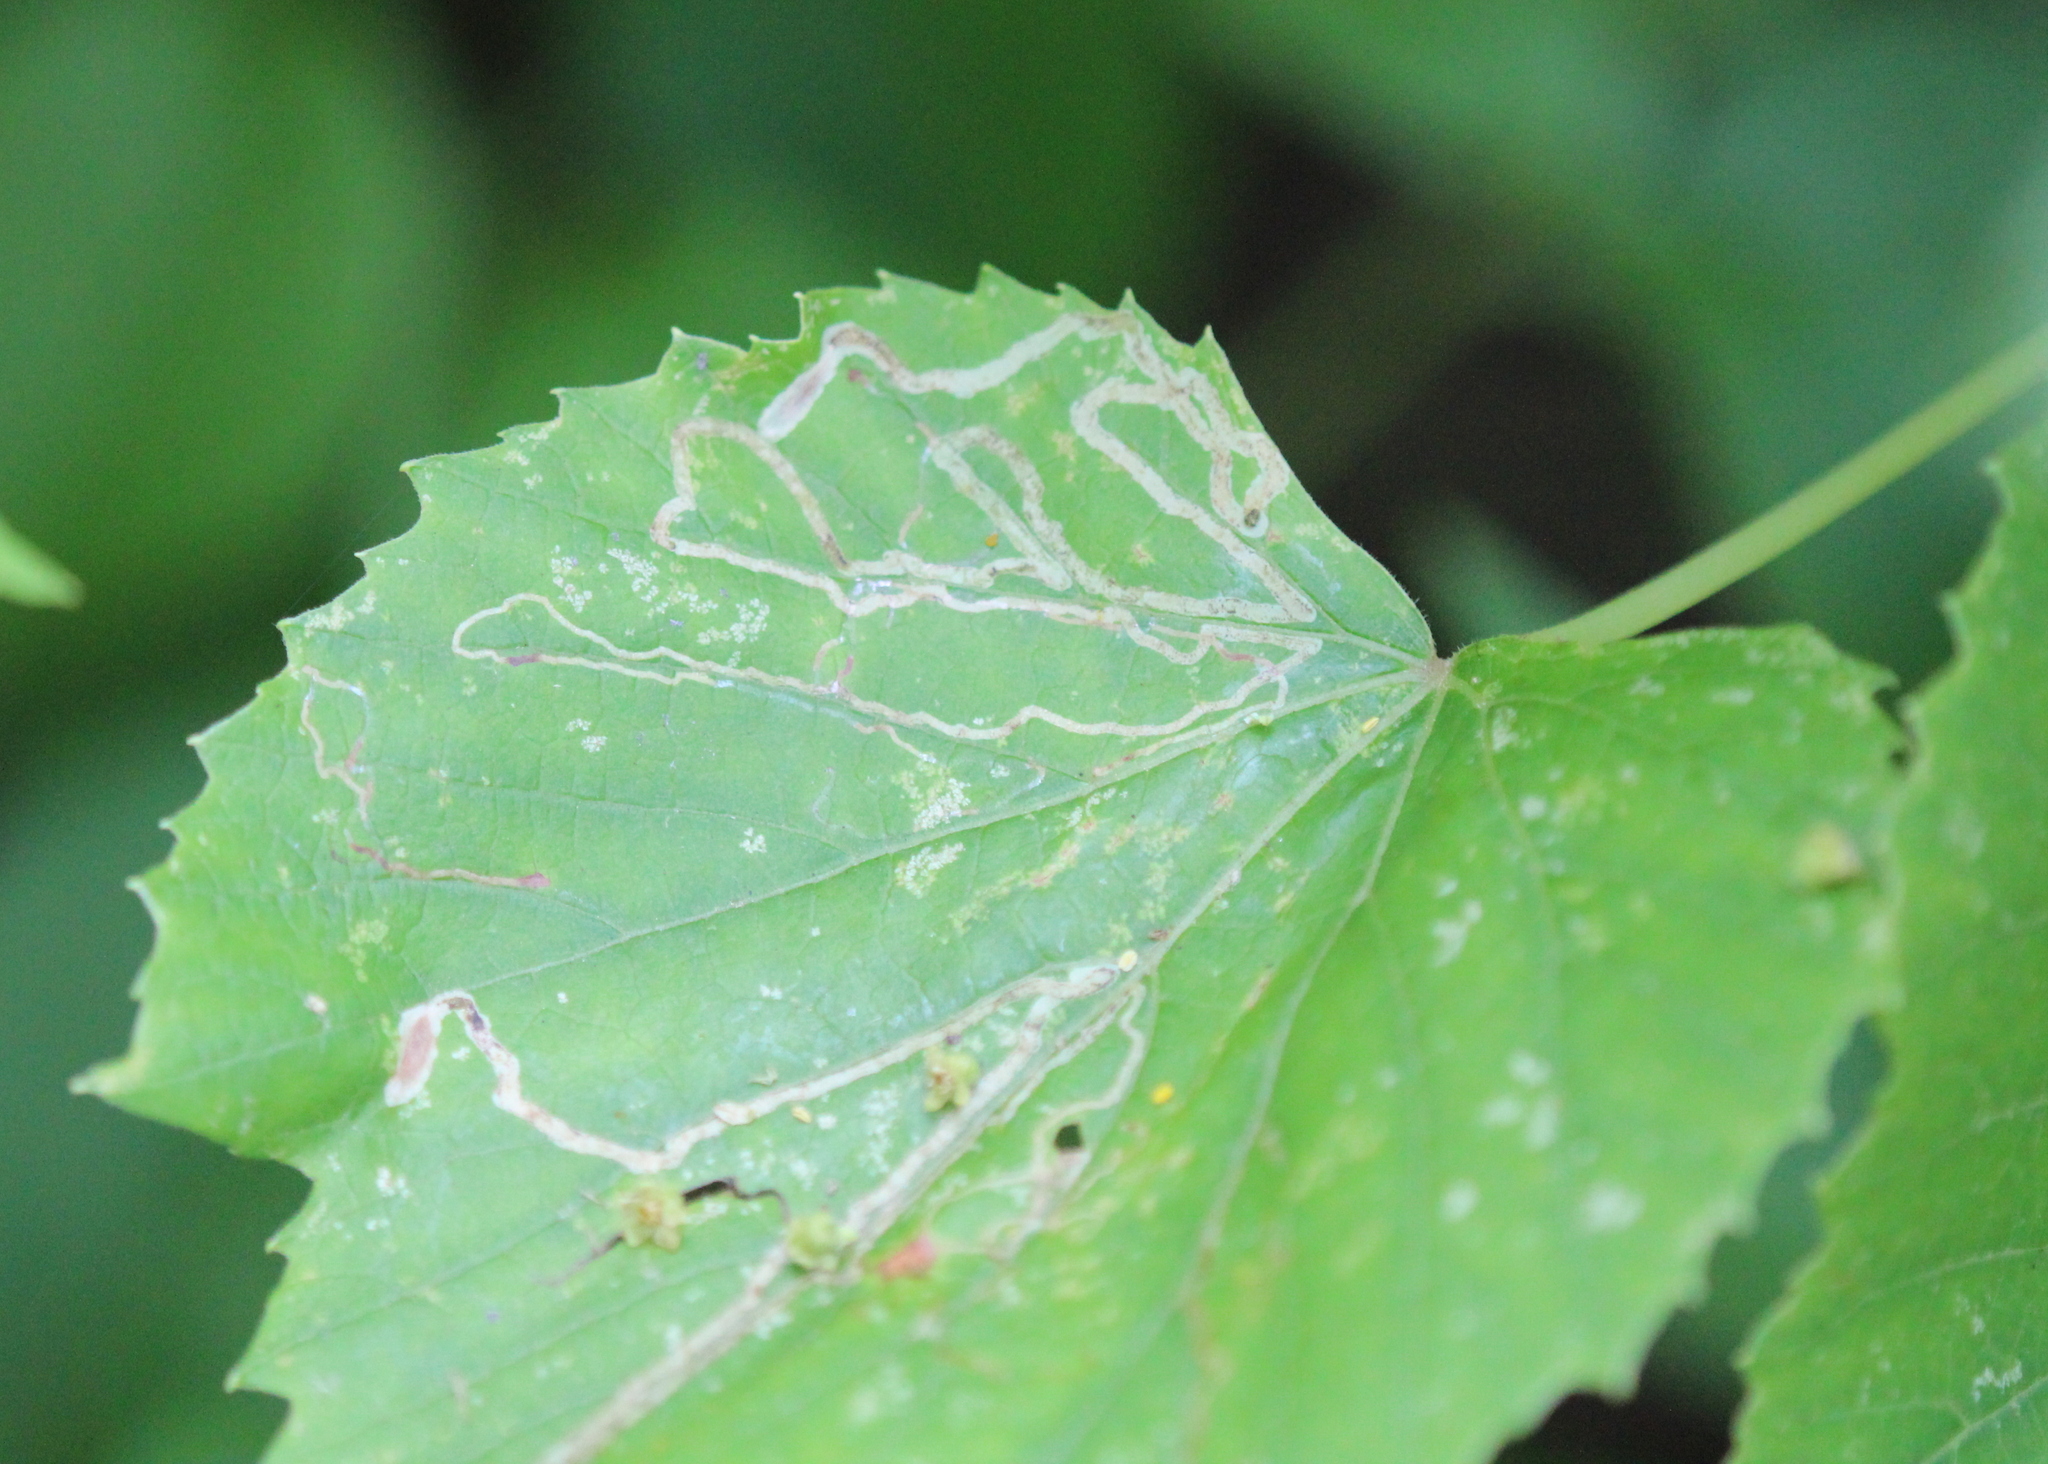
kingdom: Animalia
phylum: Arthropoda
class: Insecta
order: Lepidoptera
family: Gracillariidae
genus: Phyllocnistis
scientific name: Phyllocnistis vitifoliella
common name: Grape leaf-miner moth
